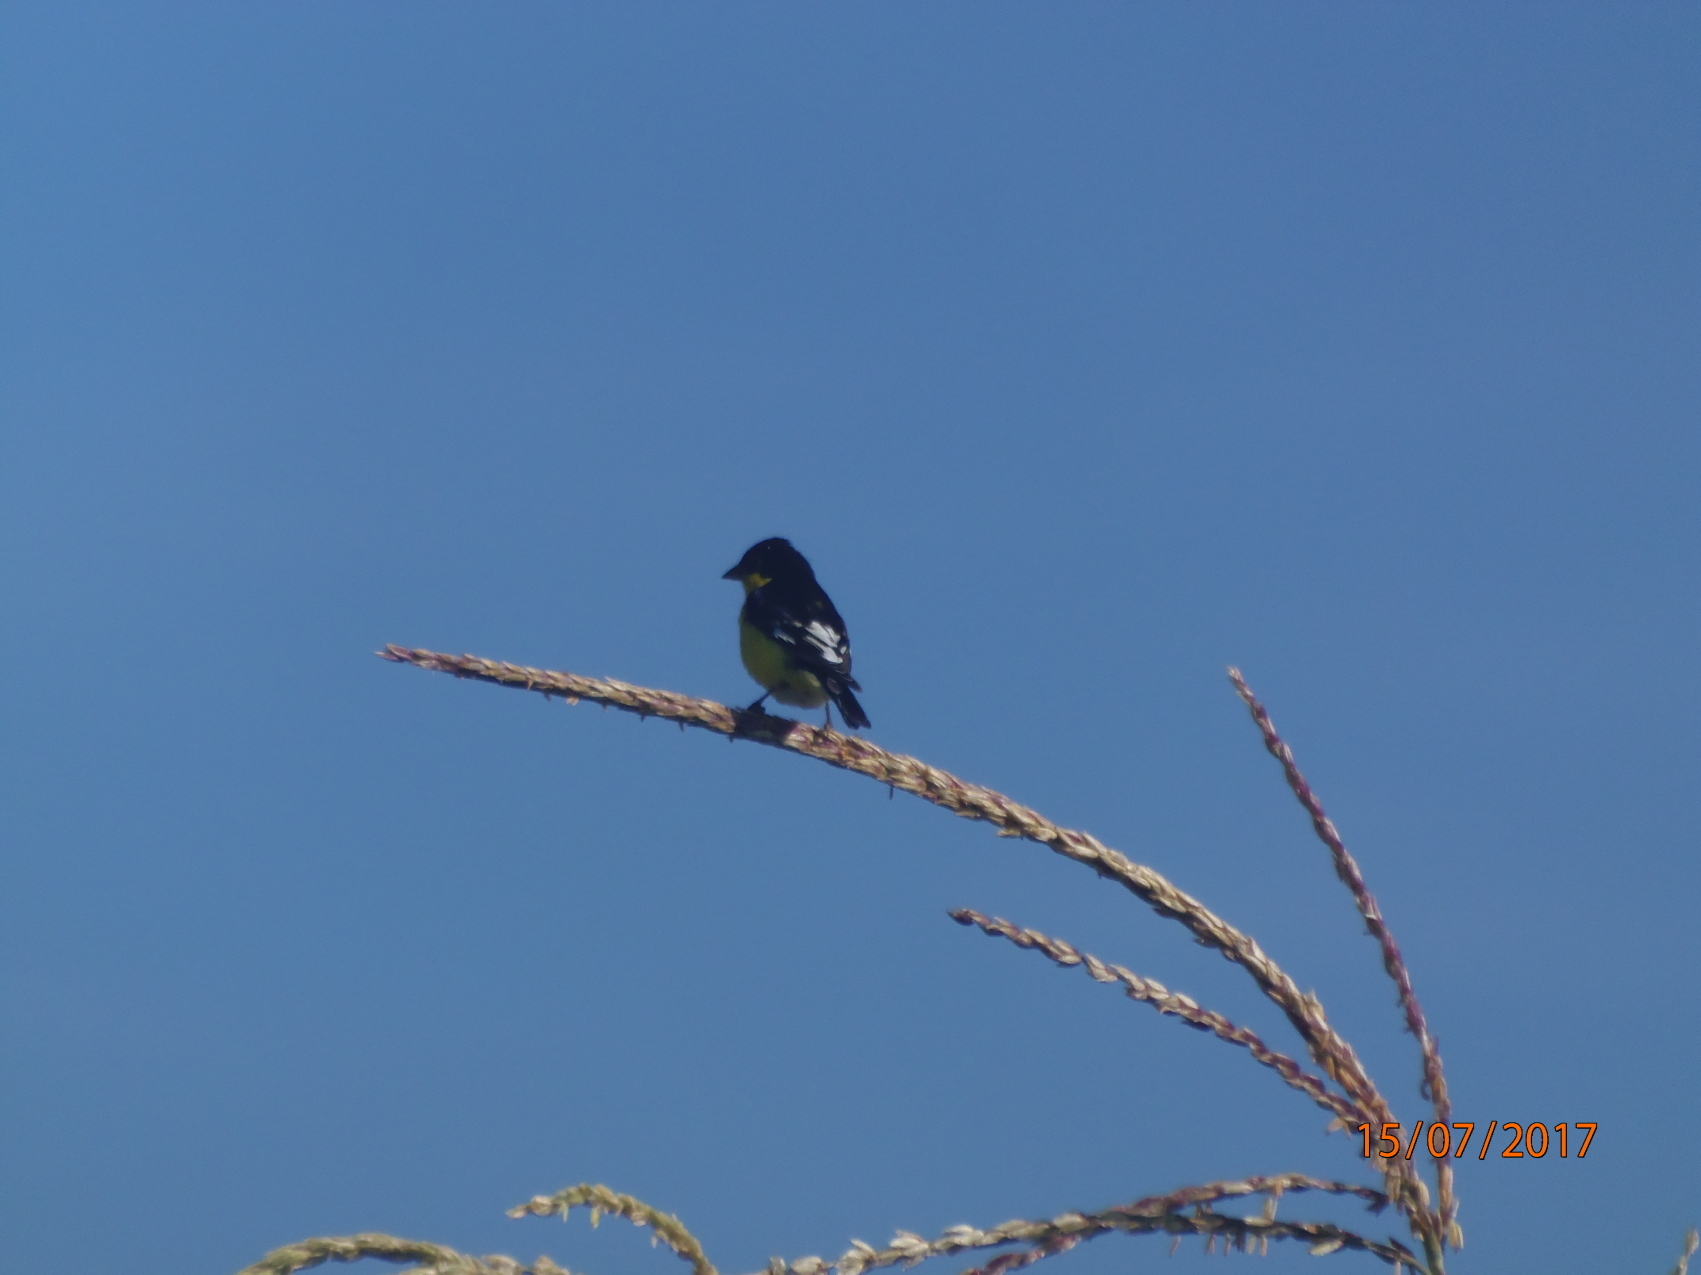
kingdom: Animalia
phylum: Chordata
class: Aves
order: Passeriformes
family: Fringillidae
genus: Spinus
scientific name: Spinus psaltria
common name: Lesser goldfinch
